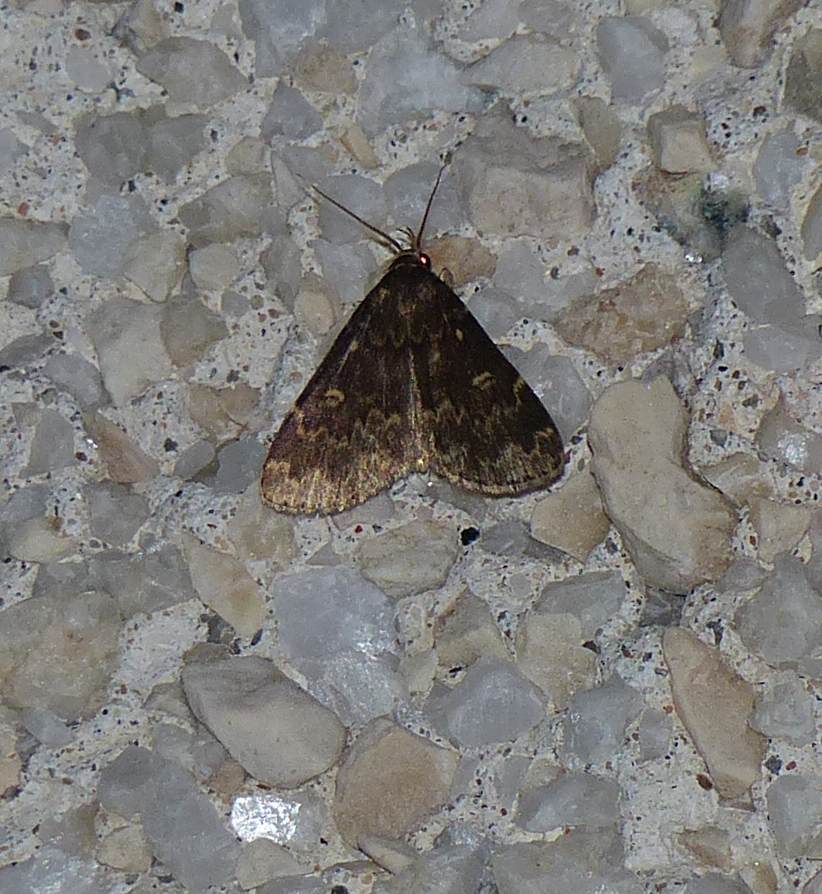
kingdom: Animalia
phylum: Arthropoda
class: Insecta
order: Lepidoptera
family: Erebidae
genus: Idia
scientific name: Idia lubricalis
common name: Twin-striped tabby
